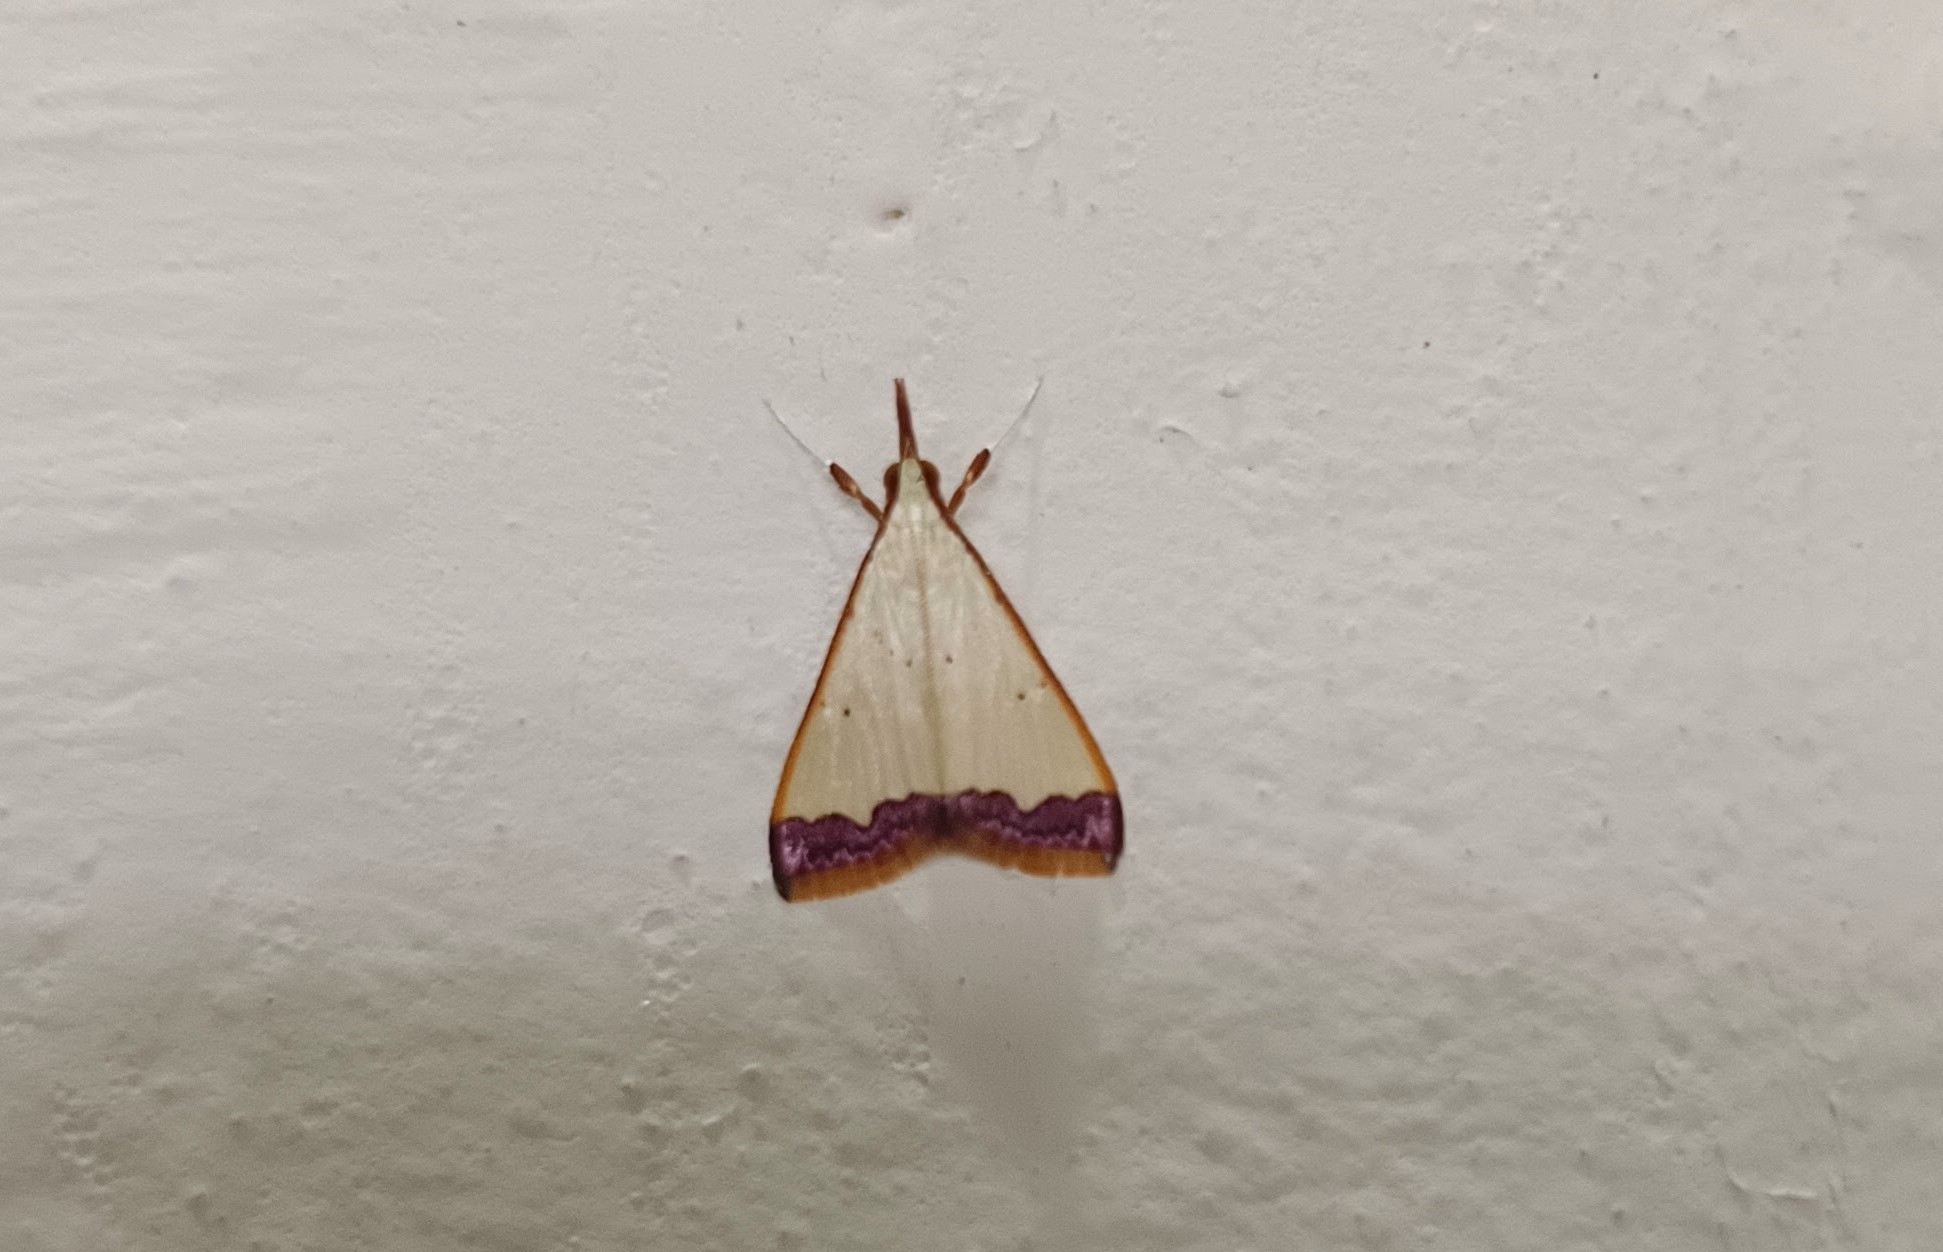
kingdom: Animalia
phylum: Arthropoda
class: Insecta
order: Lepidoptera
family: Crambidae
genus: Autocharis
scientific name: Autocharis hedyphaes
